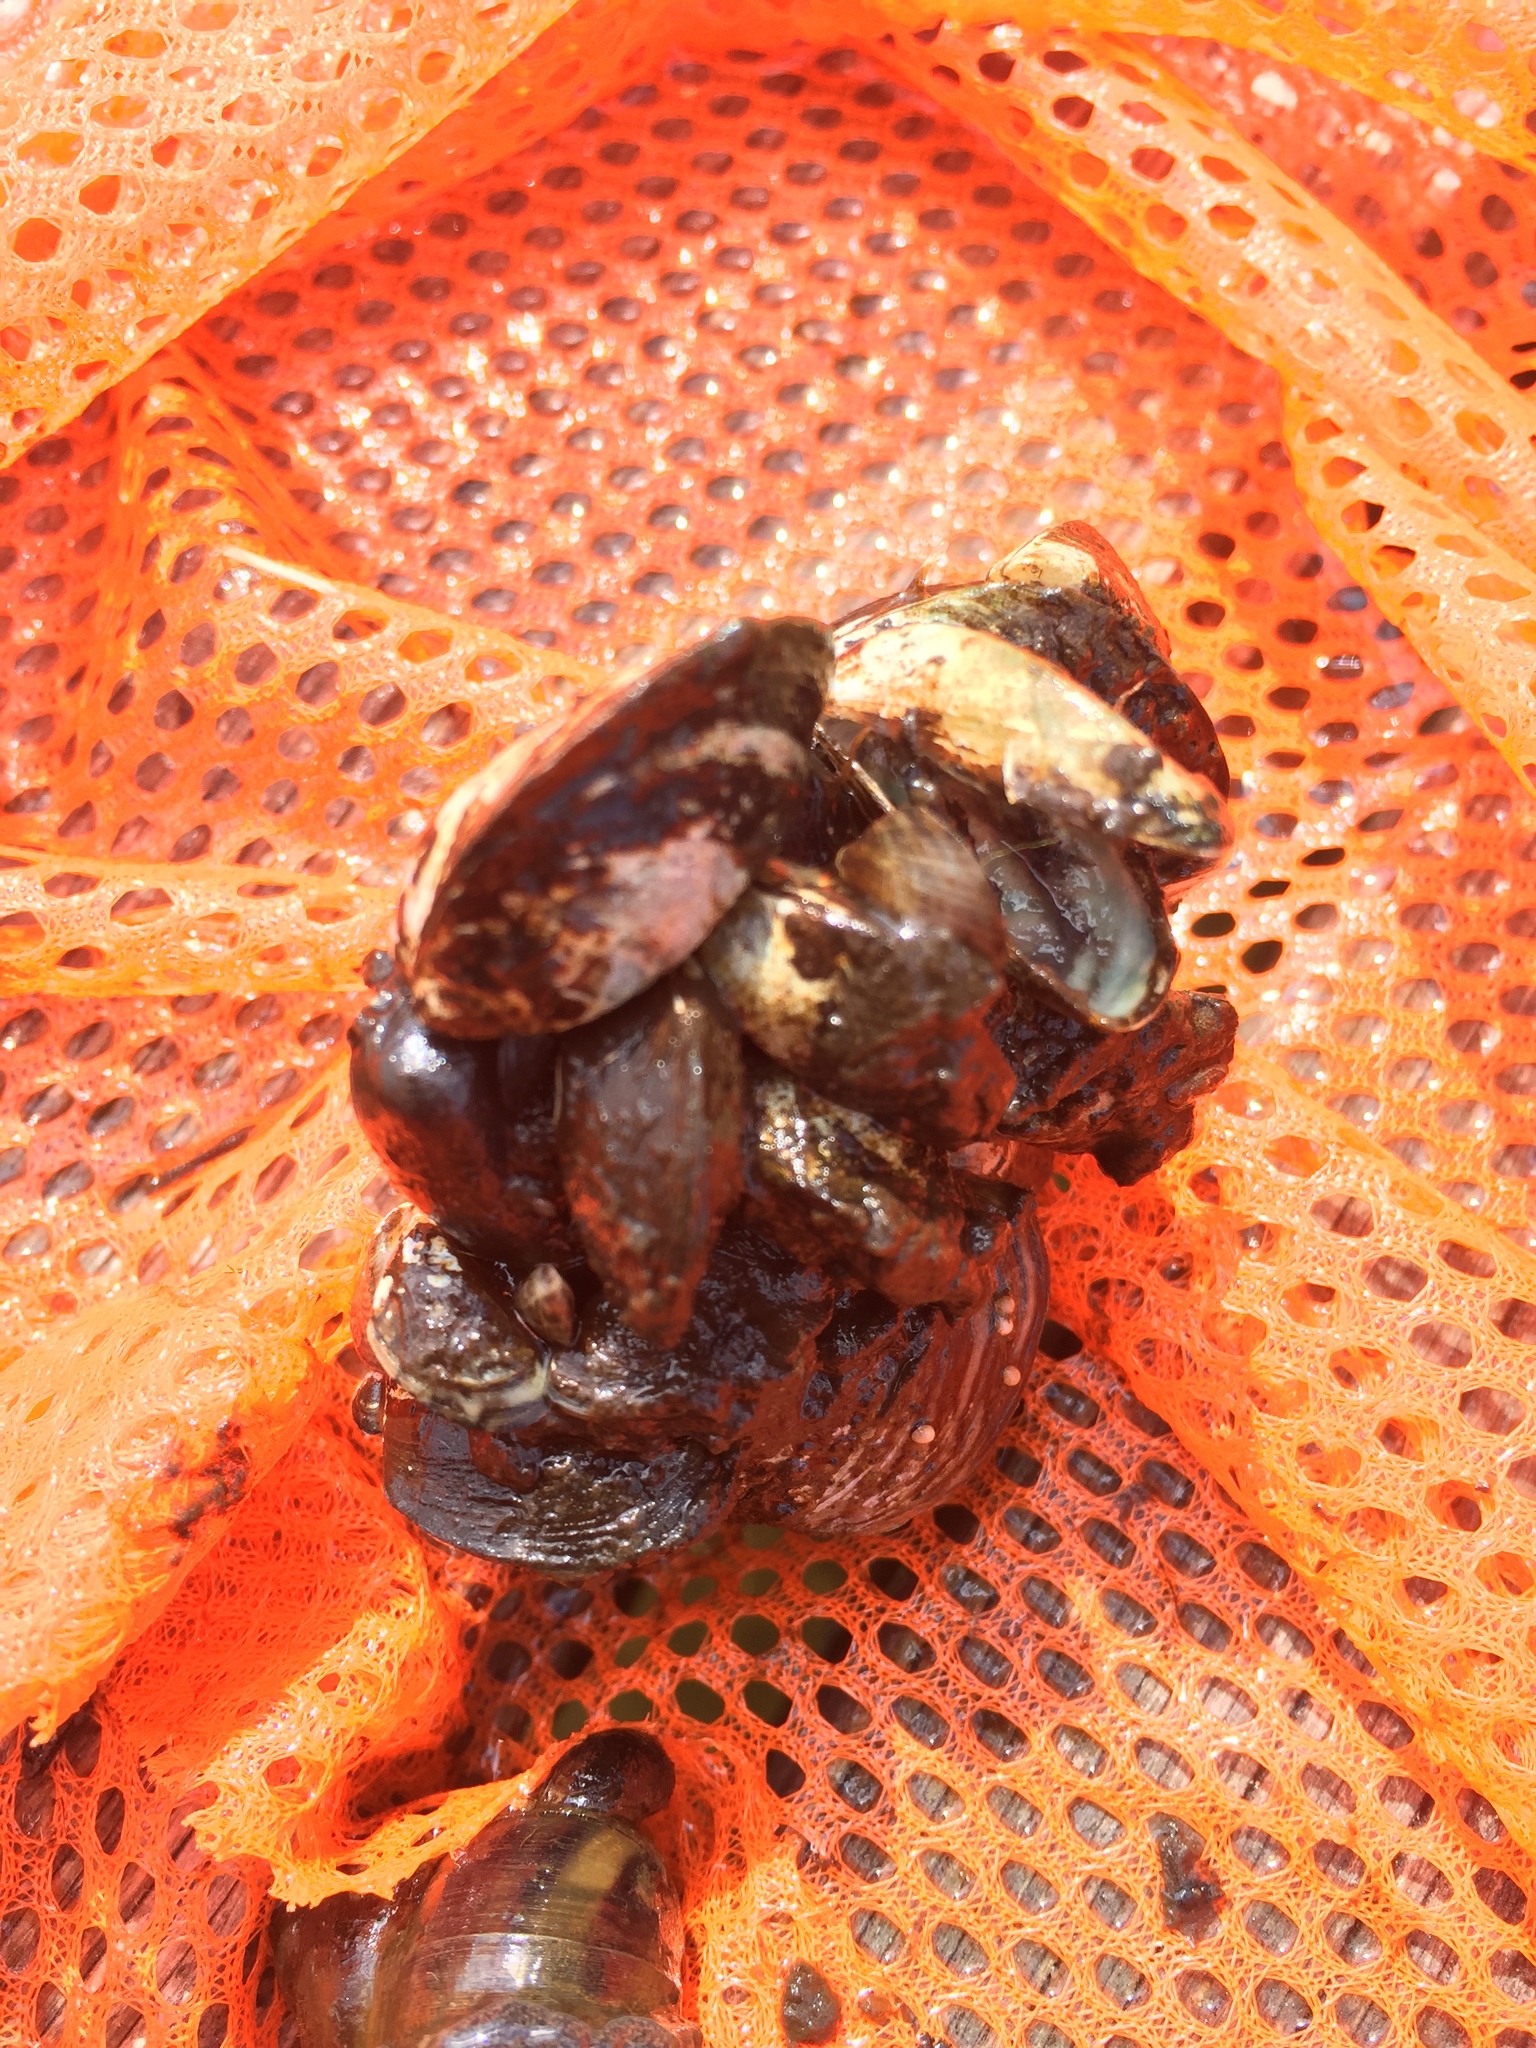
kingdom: Animalia
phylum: Mollusca
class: Bivalvia
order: Myida
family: Dreissenidae
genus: Dreissena
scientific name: Dreissena polymorpha
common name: Zebra mussel
